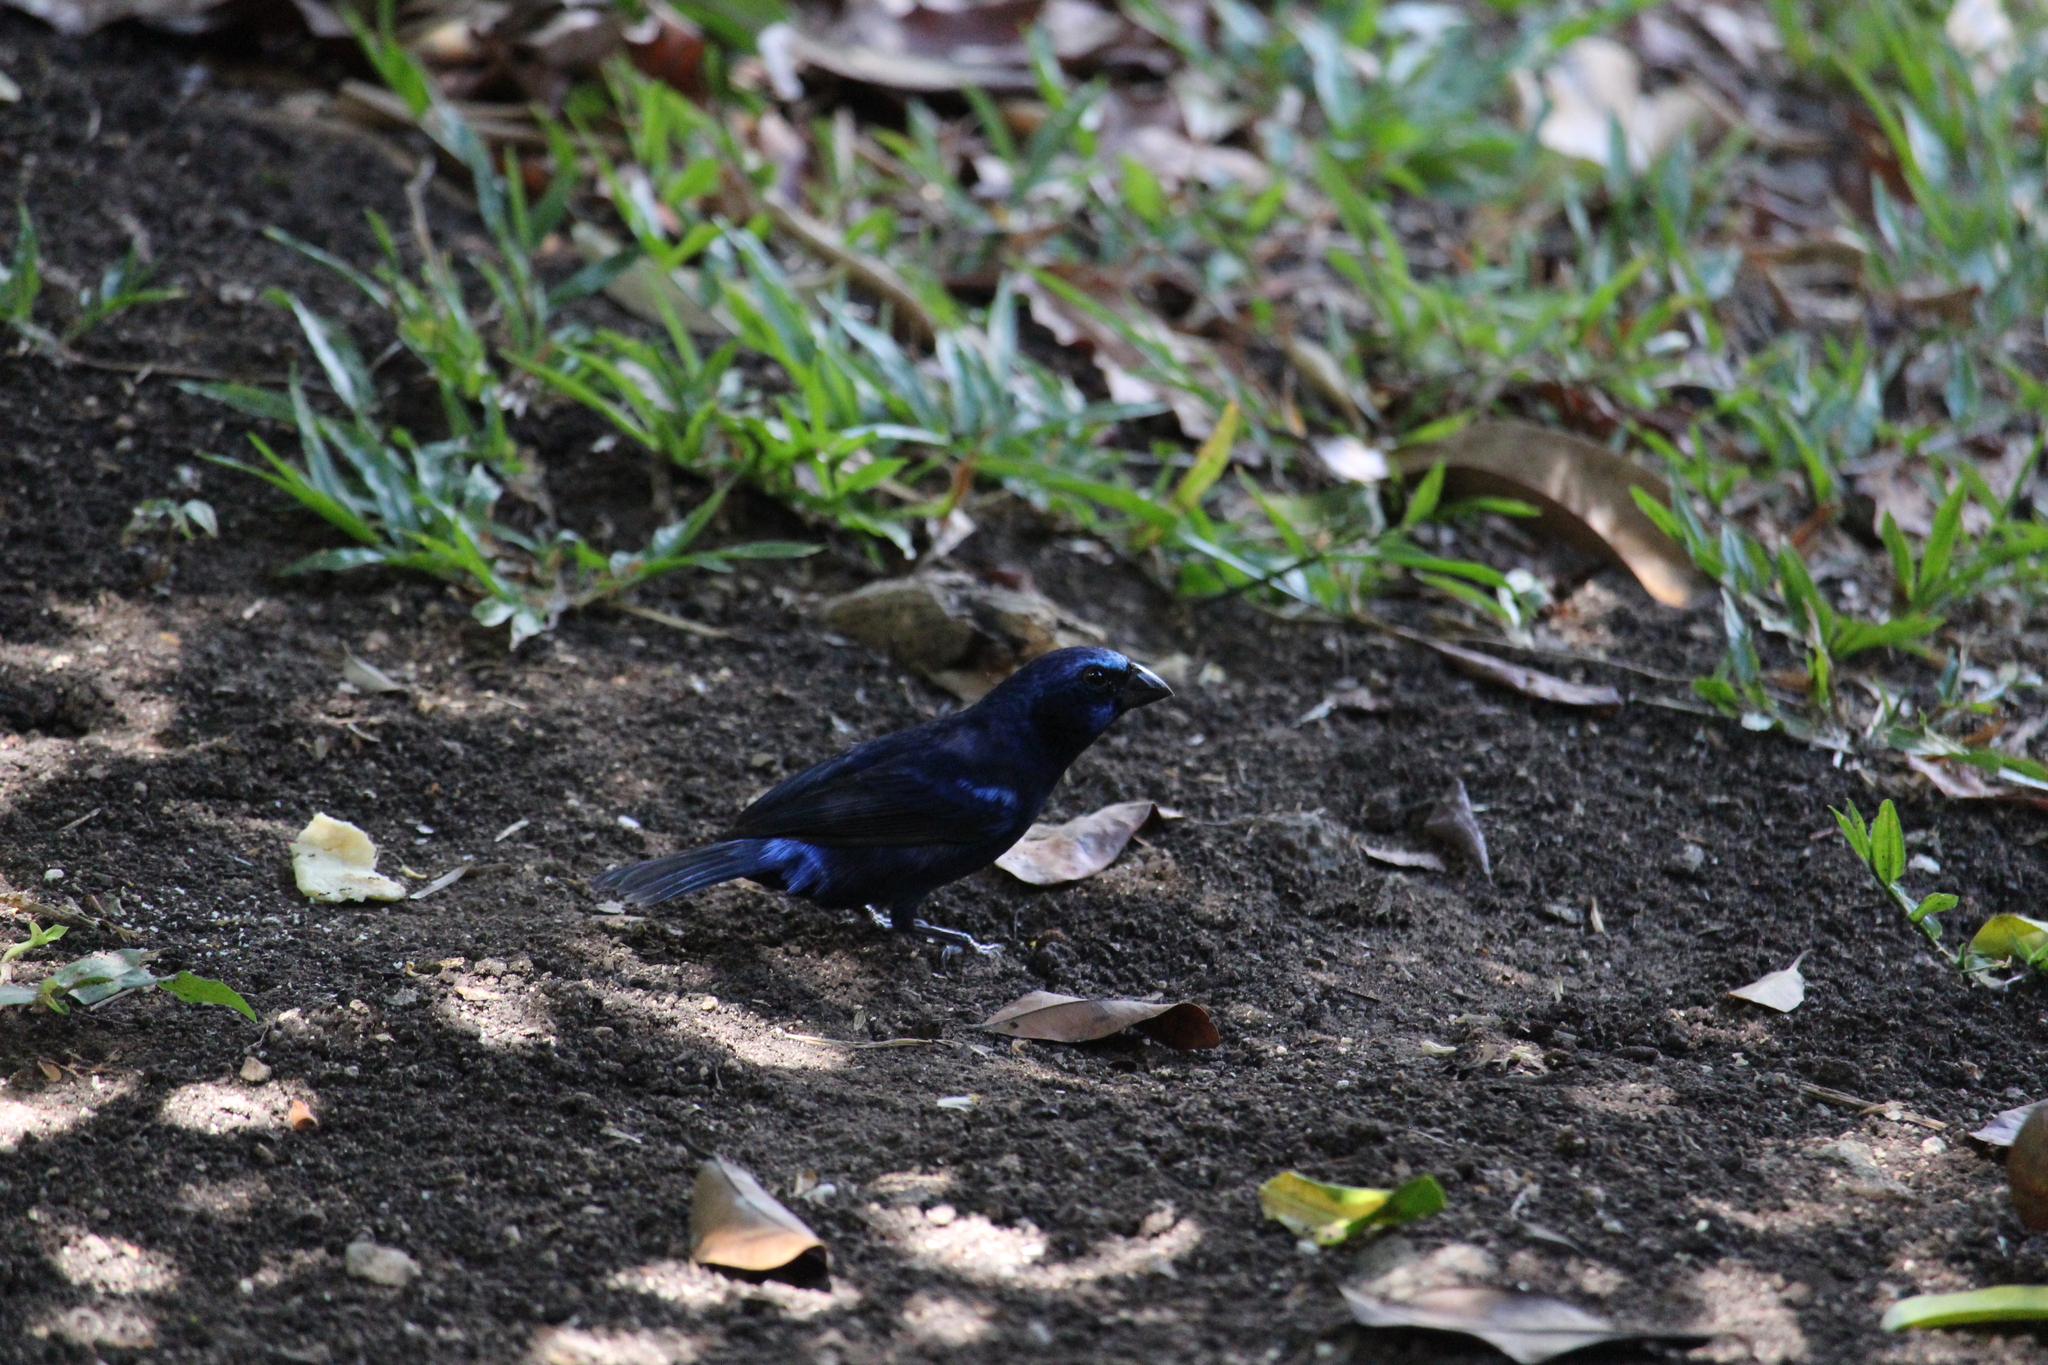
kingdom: Animalia
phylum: Chordata
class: Aves
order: Passeriformes
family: Cardinalidae
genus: Cyanocompsa
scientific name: Cyanocompsa parellina
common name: Blue bunting
